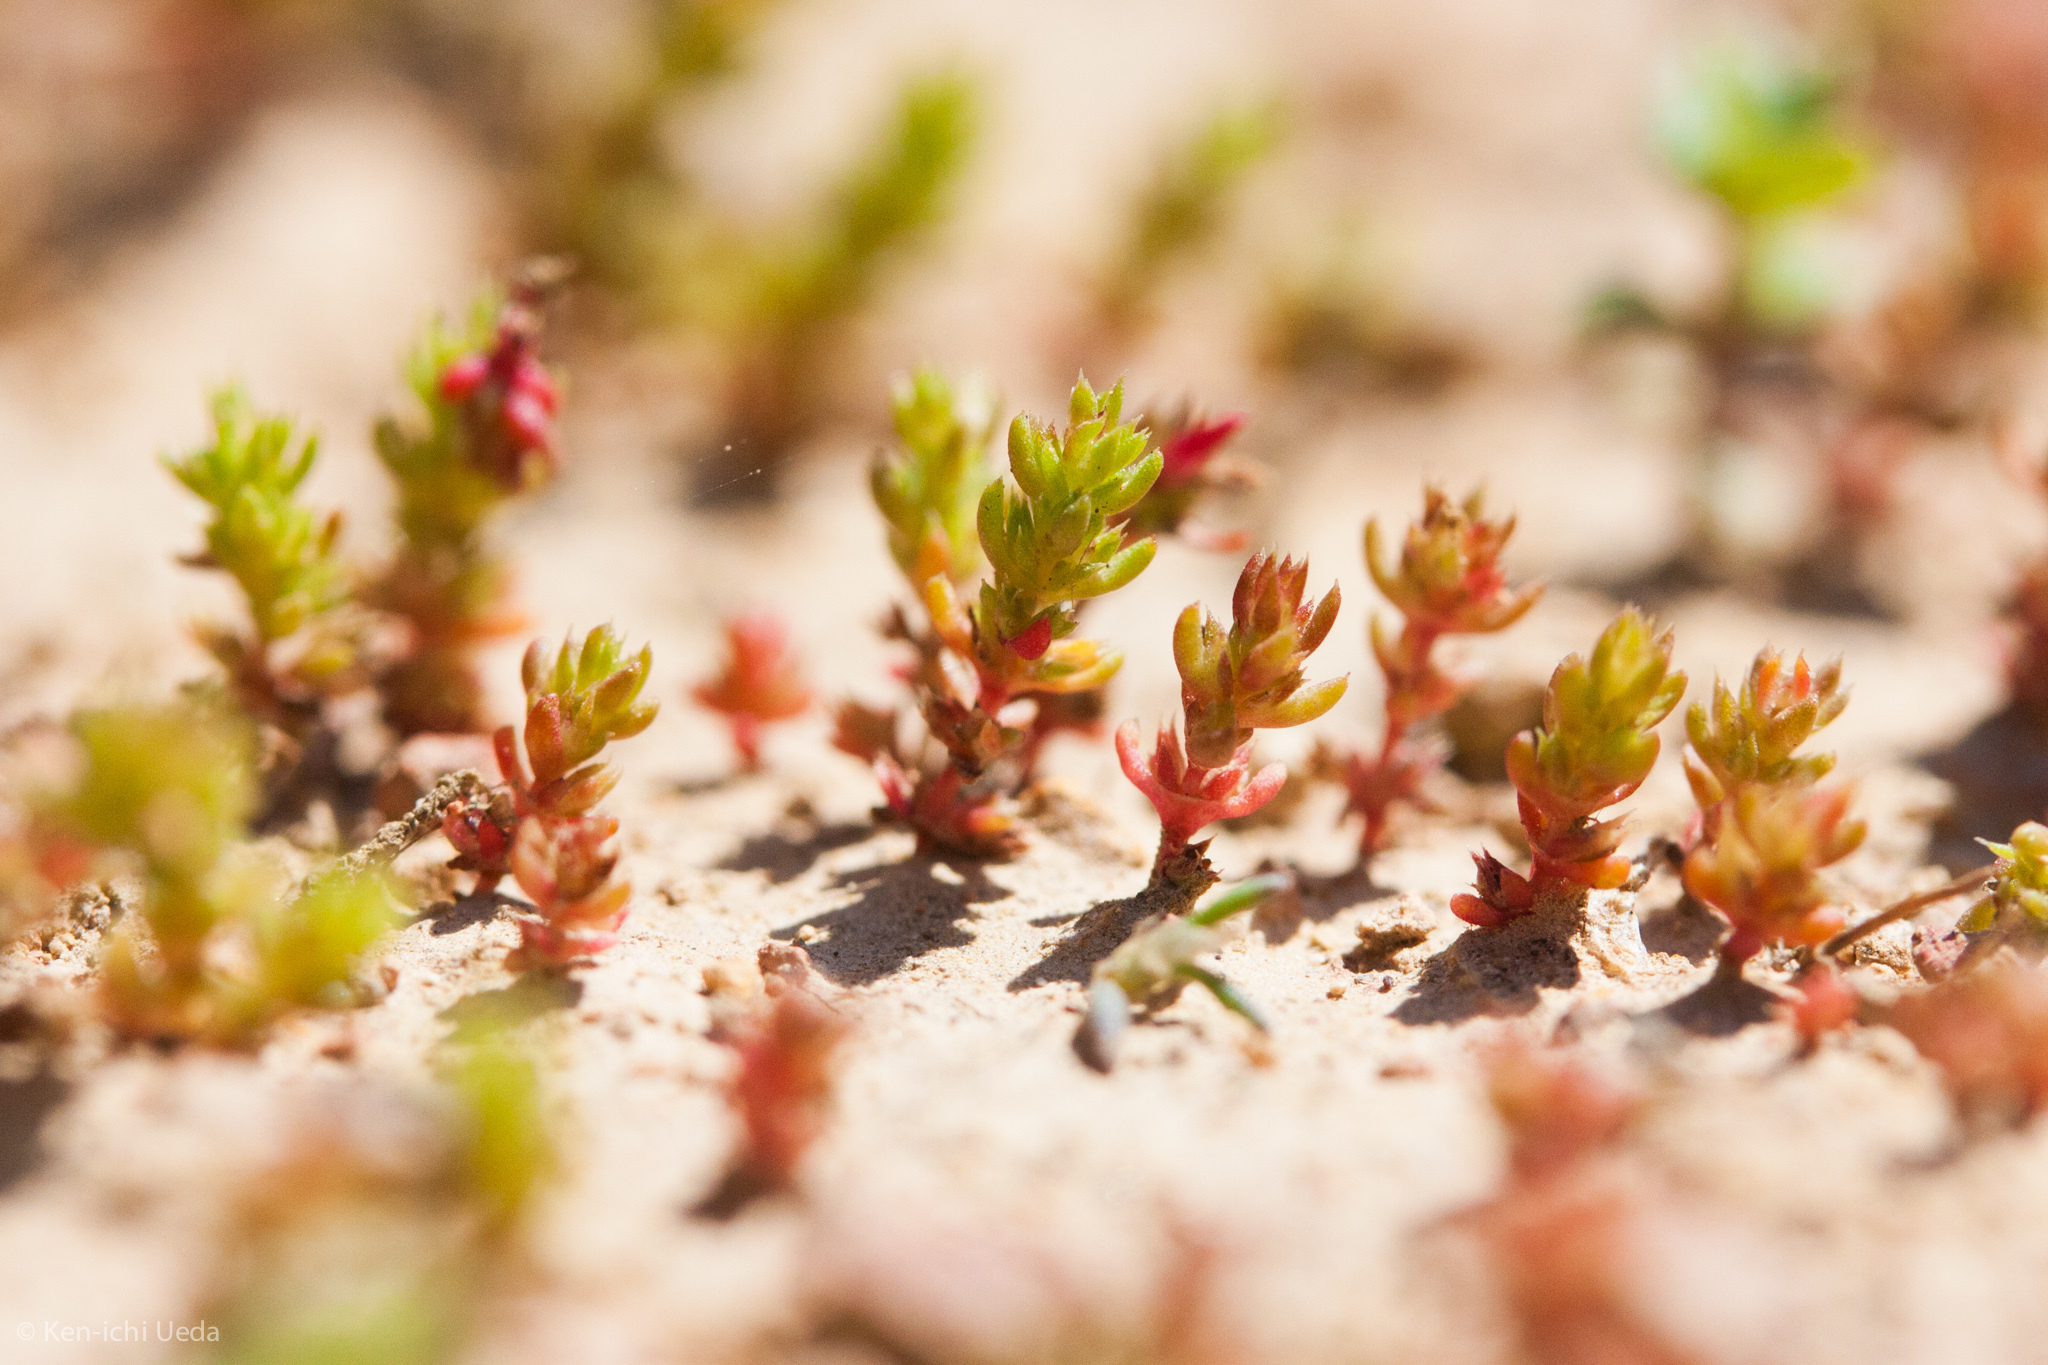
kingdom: Plantae
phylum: Tracheophyta
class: Magnoliopsida
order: Saxifragales
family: Crassulaceae
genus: Crassula
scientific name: Crassula tillaea
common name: Mossy stonecrop
